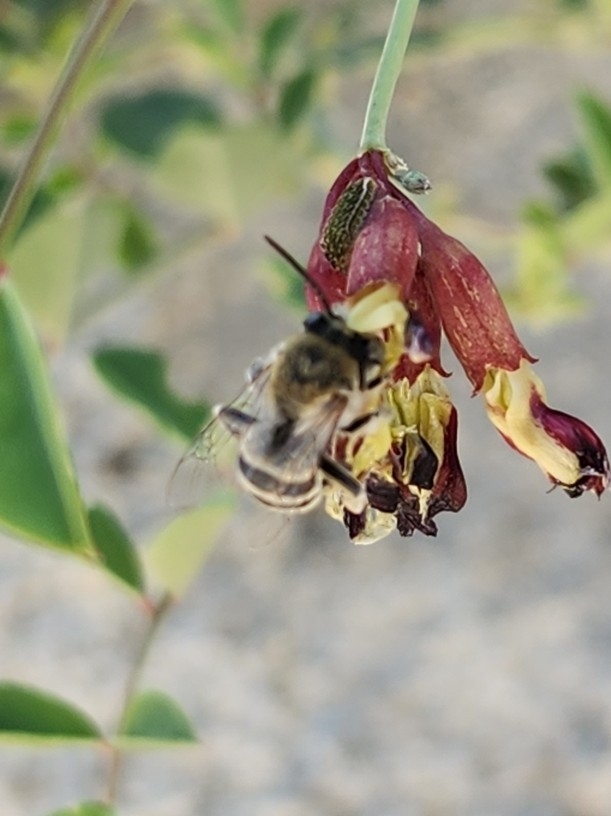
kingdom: Animalia
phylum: Arthropoda
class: Insecta
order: Hymenoptera
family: Apidae
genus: Apis
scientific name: Apis mellifera
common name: Honey bee
